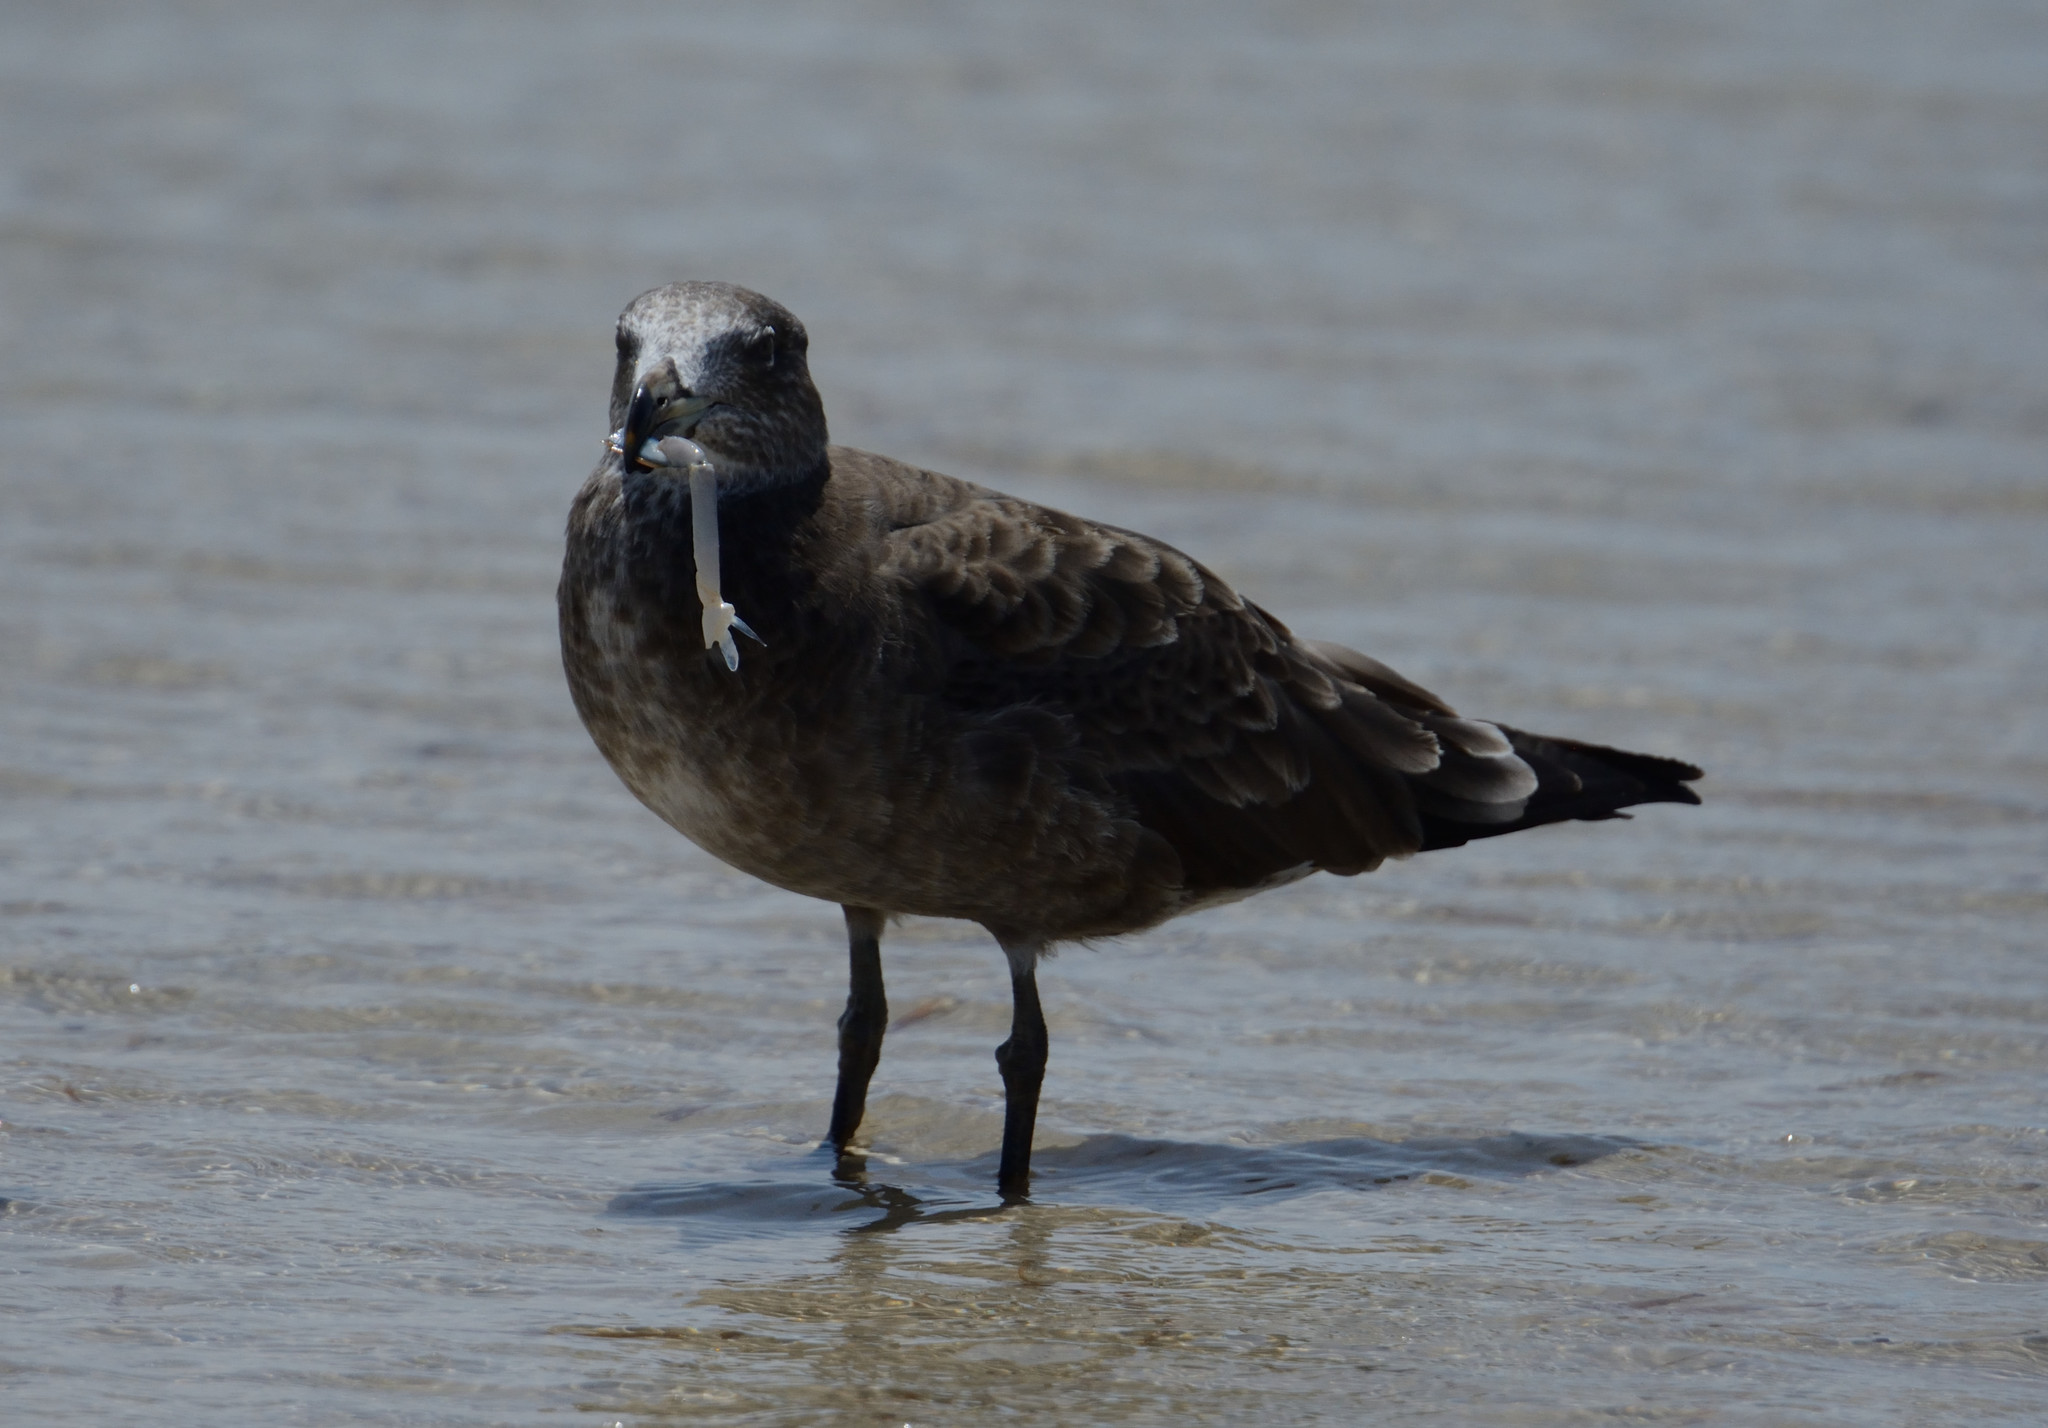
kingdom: Animalia
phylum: Chordata
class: Aves
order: Charadriiformes
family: Laridae
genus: Larus
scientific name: Larus pacificus
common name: Pacific gull
